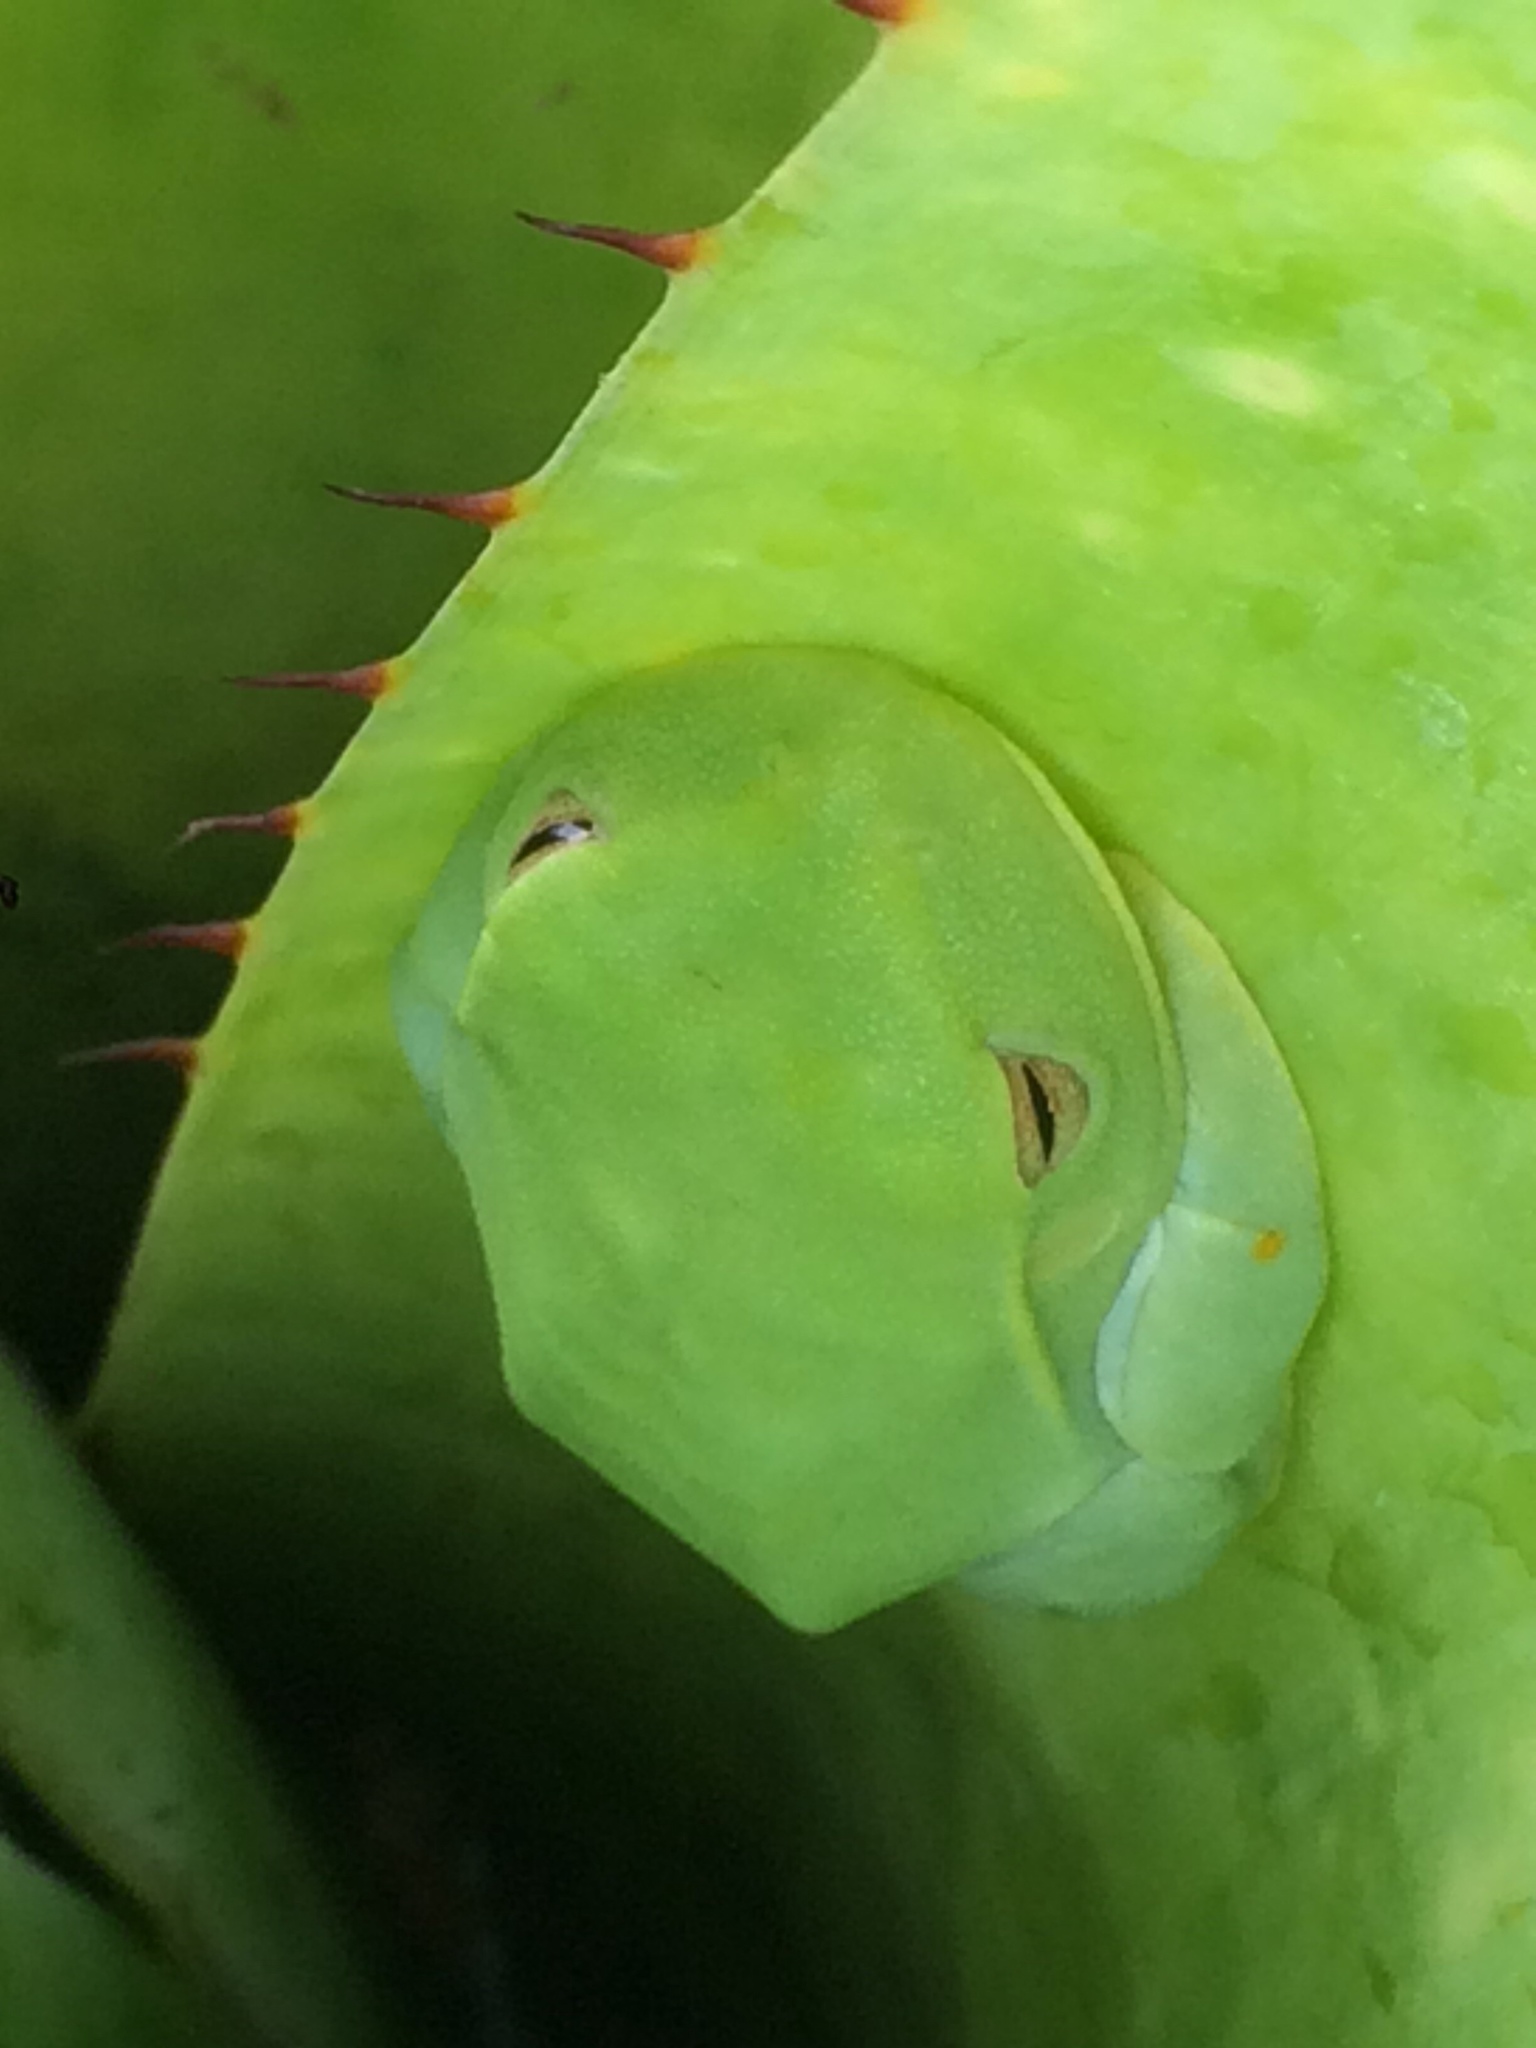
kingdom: Animalia
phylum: Chordata
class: Amphibia
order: Anura
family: Hylidae
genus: Boana
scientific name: Boana albomarginata
